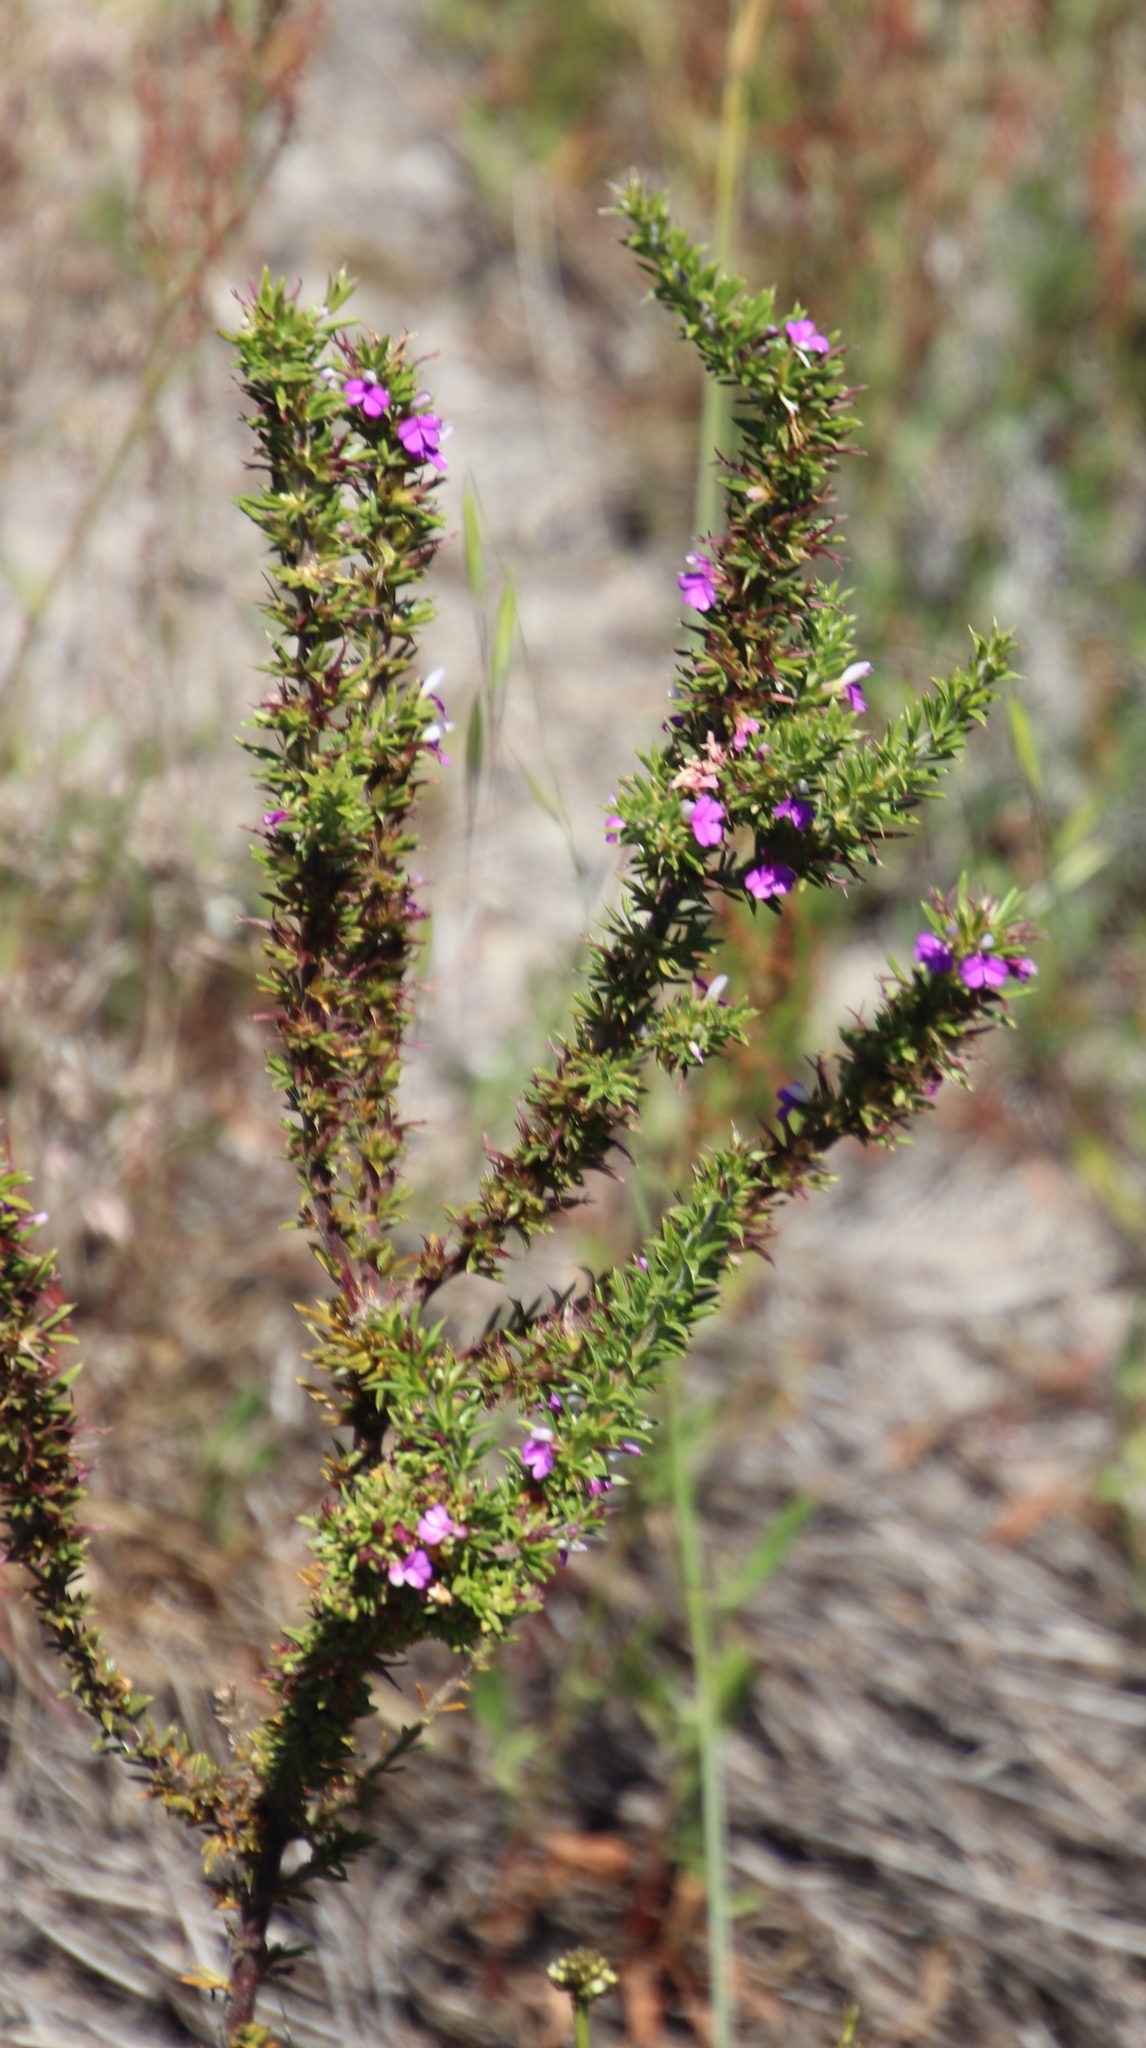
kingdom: Plantae
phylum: Tracheophyta
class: Magnoliopsida
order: Fabales
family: Polygalaceae
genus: Muraltia
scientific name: Muraltia heisteria
